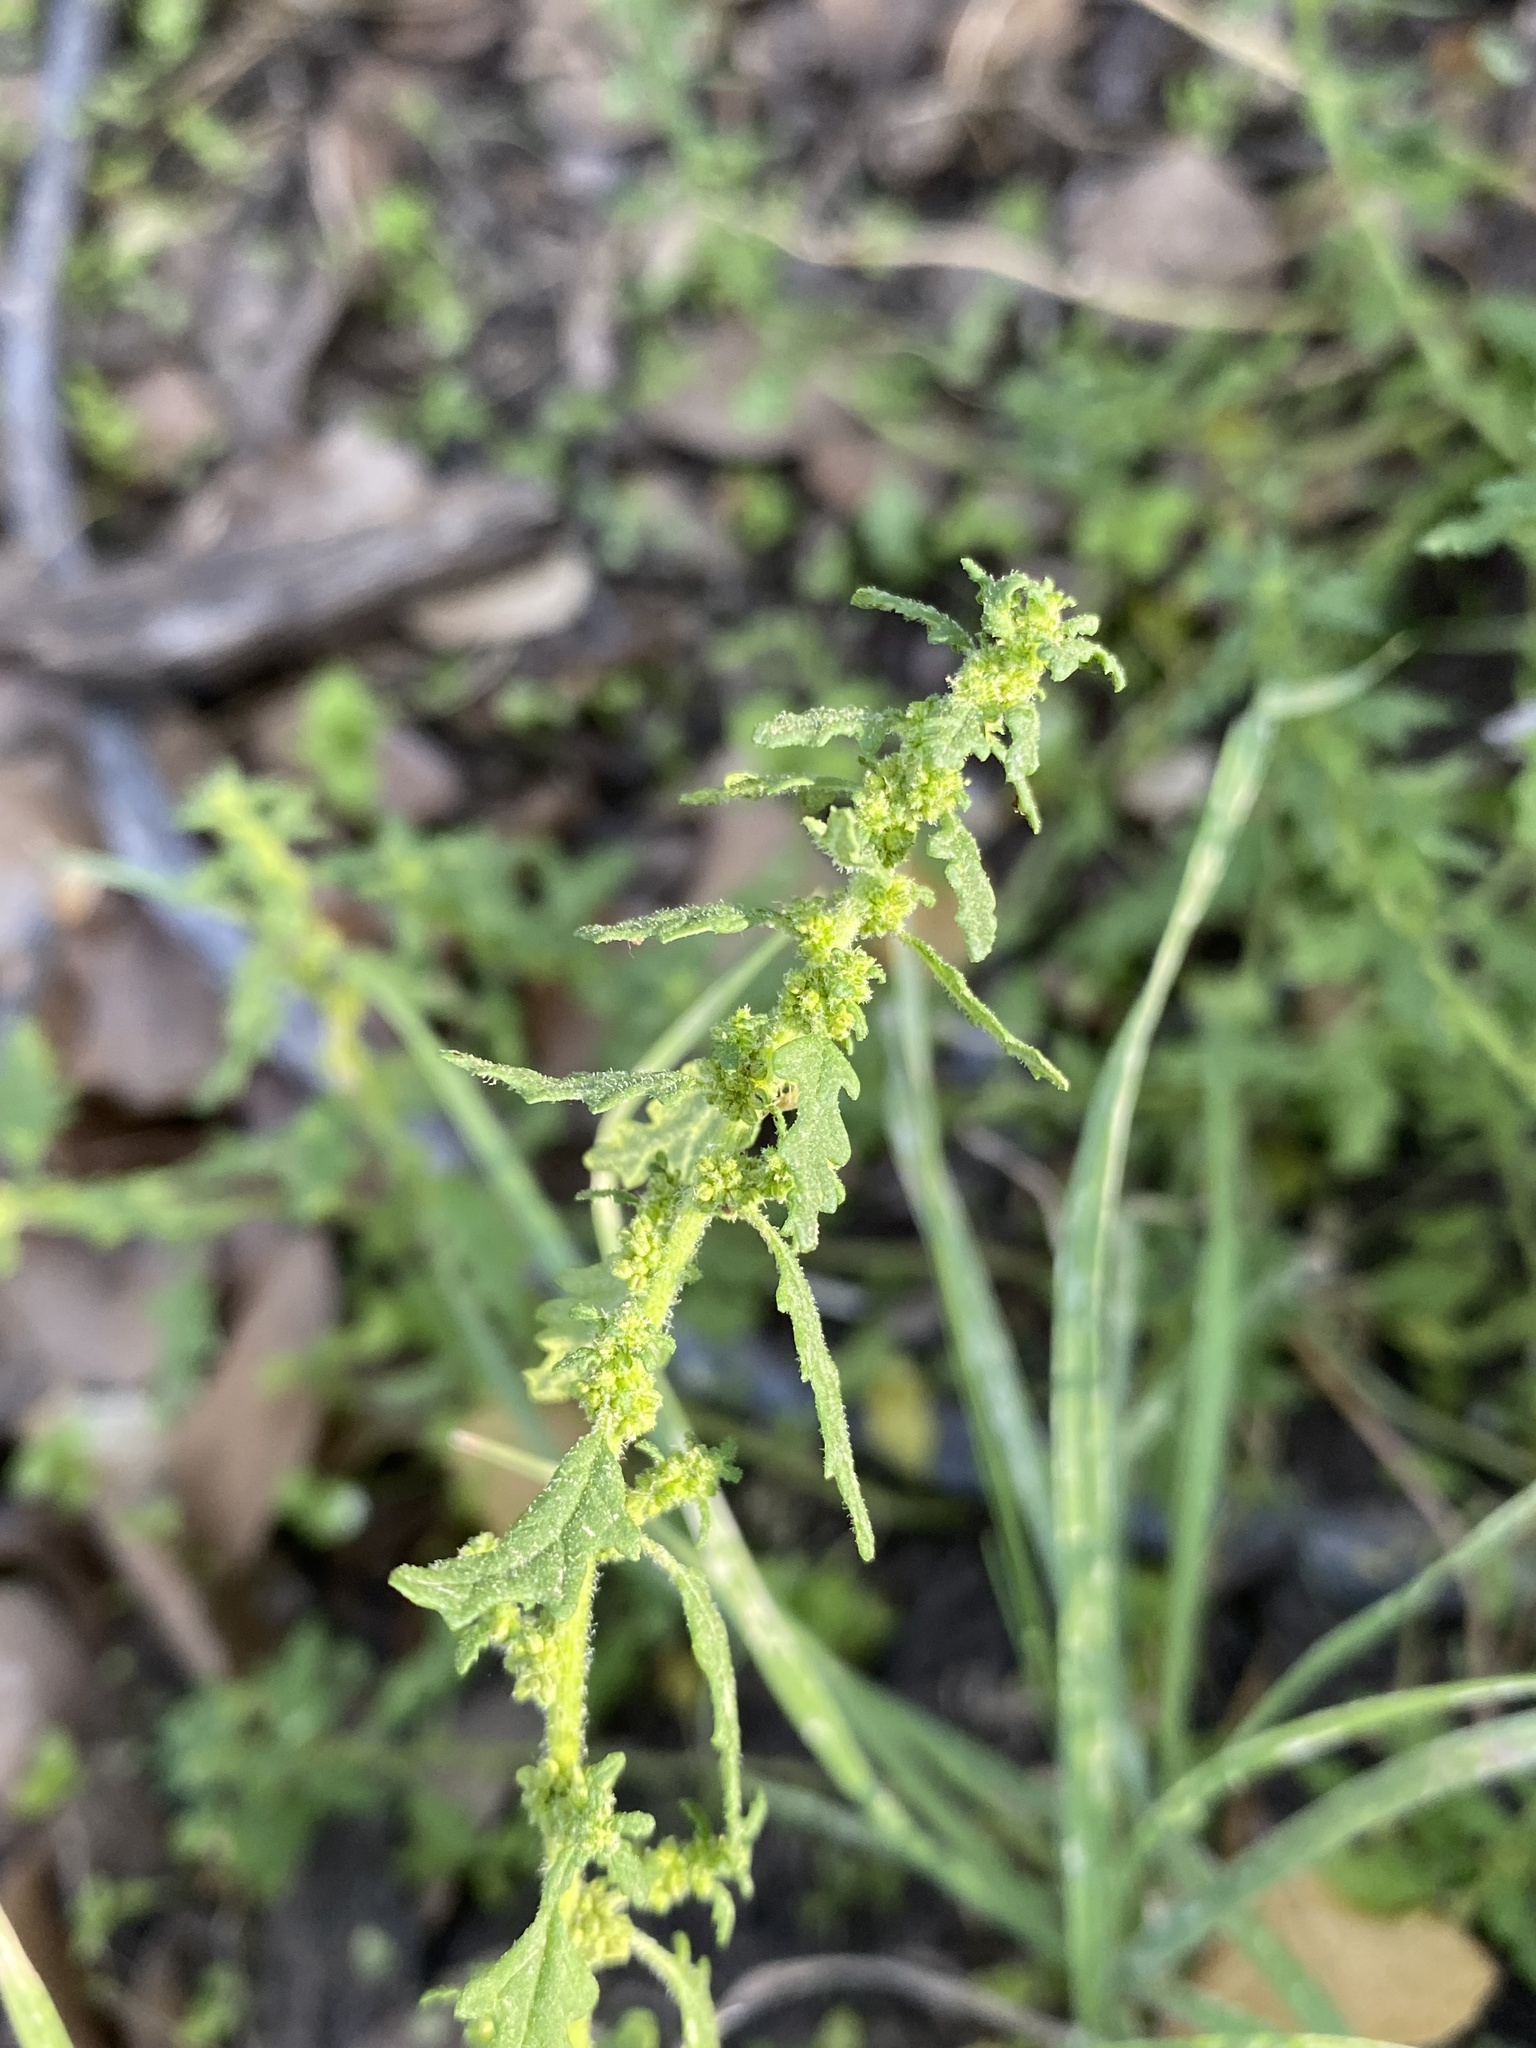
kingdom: Plantae
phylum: Tracheophyta
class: Magnoliopsida
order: Caryophyllales
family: Amaranthaceae
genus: Dysphania
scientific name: Dysphania pumilio
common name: Clammy goosefoot
